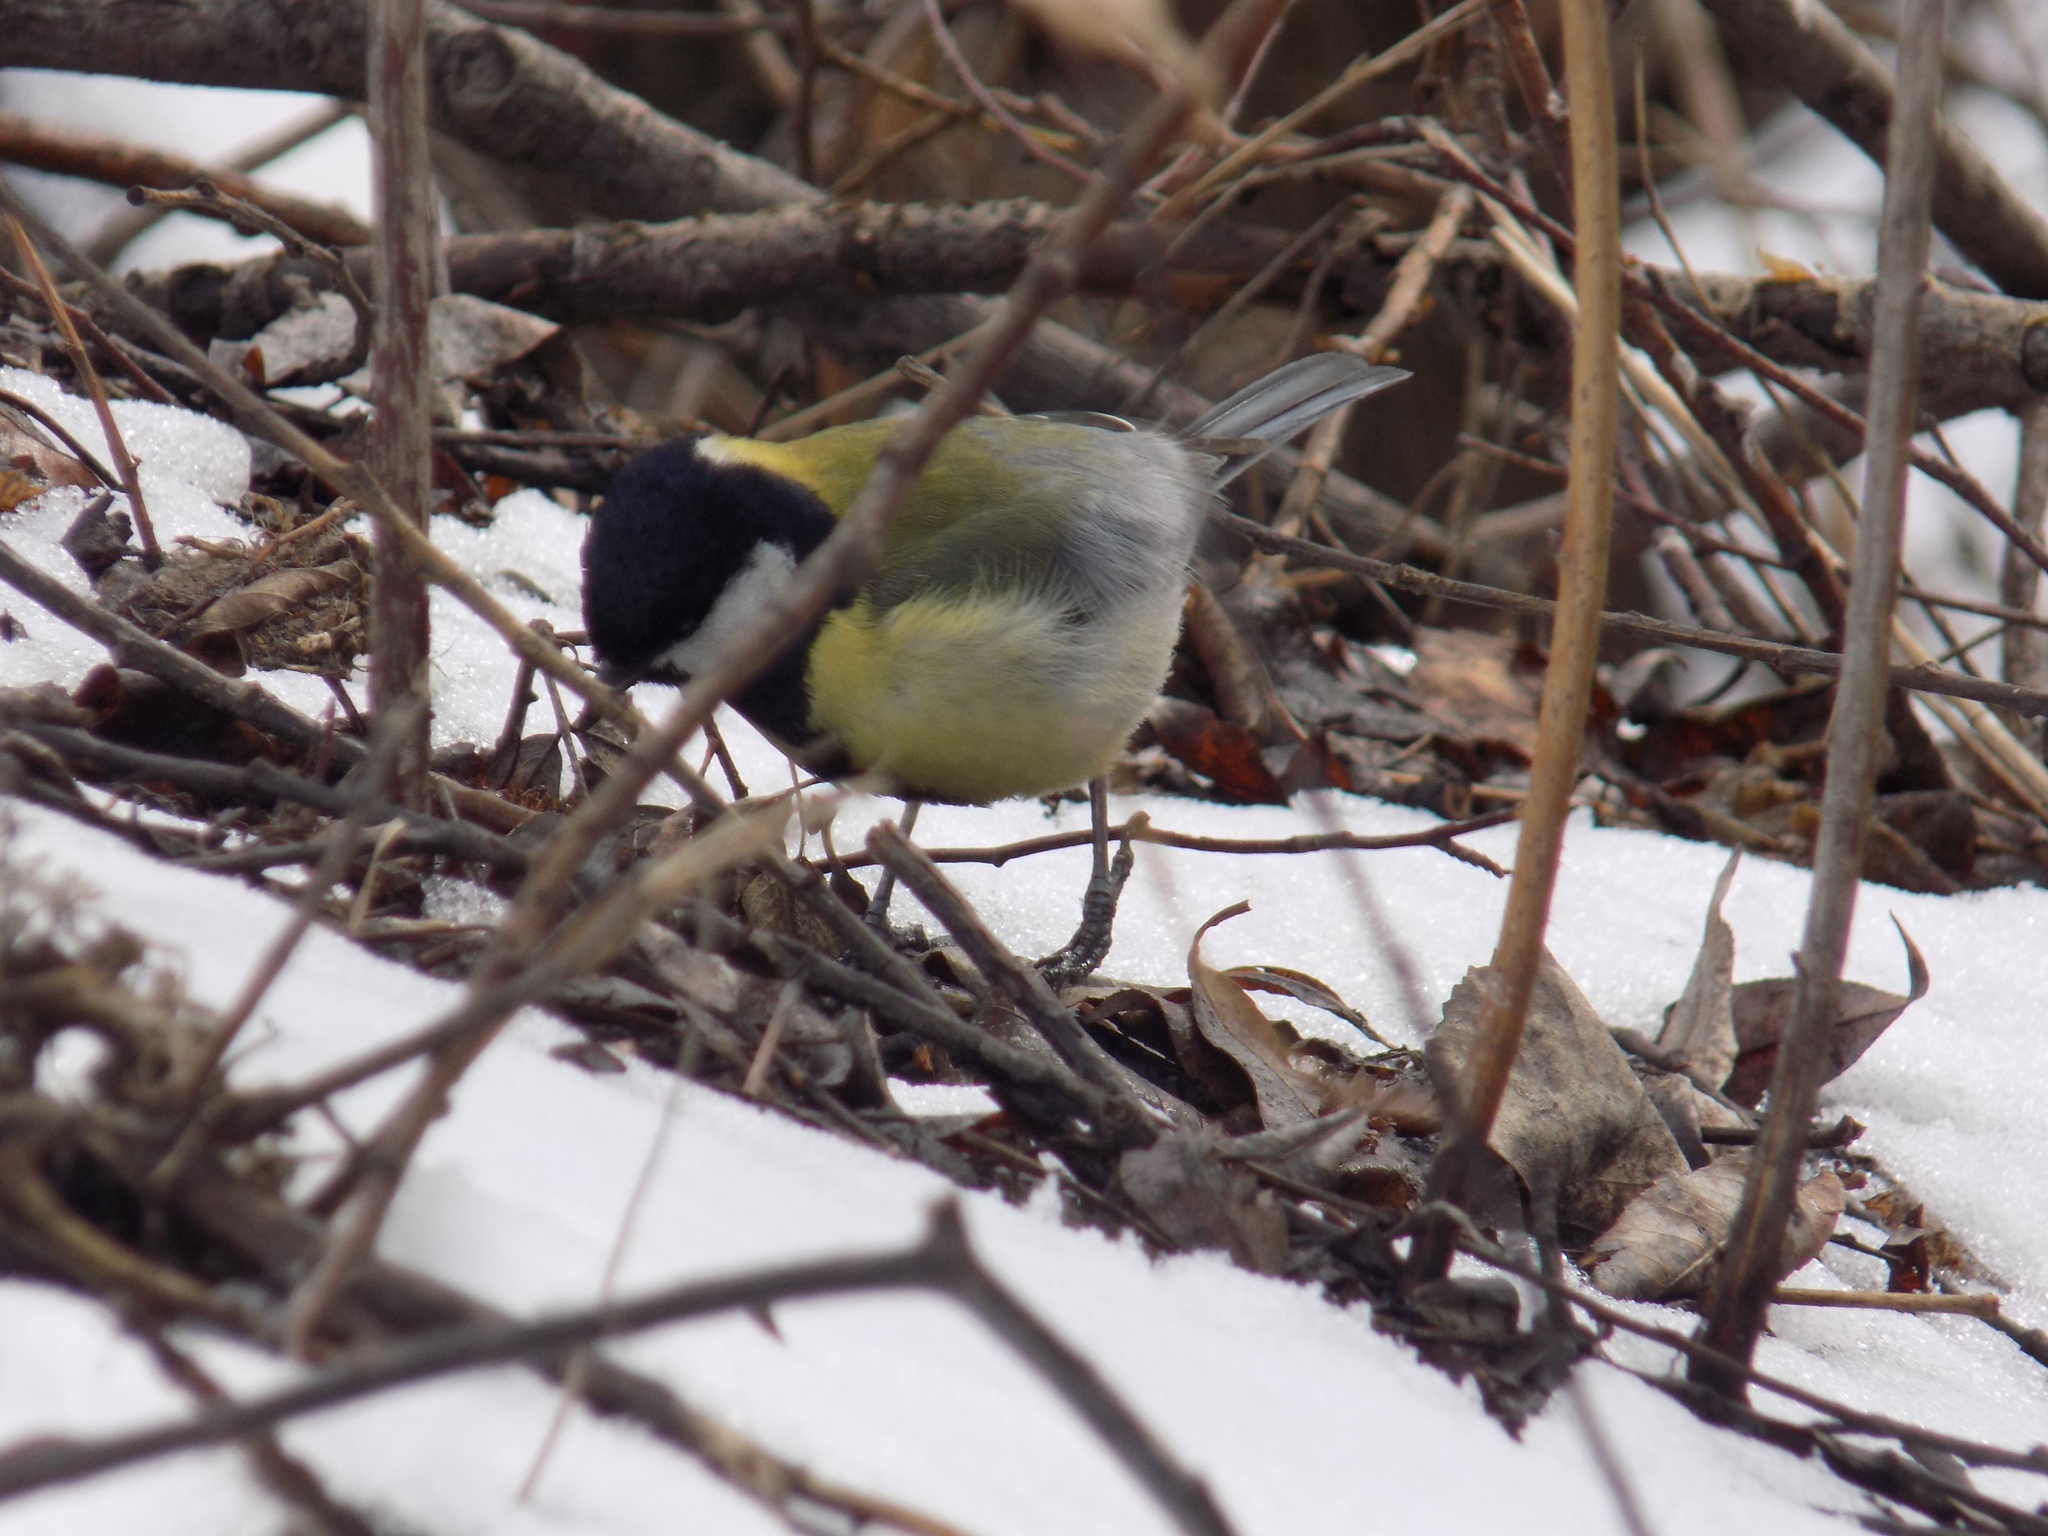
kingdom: Animalia
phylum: Chordata
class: Aves
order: Passeriformes
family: Paridae
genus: Parus
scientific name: Parus major
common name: Great tit
